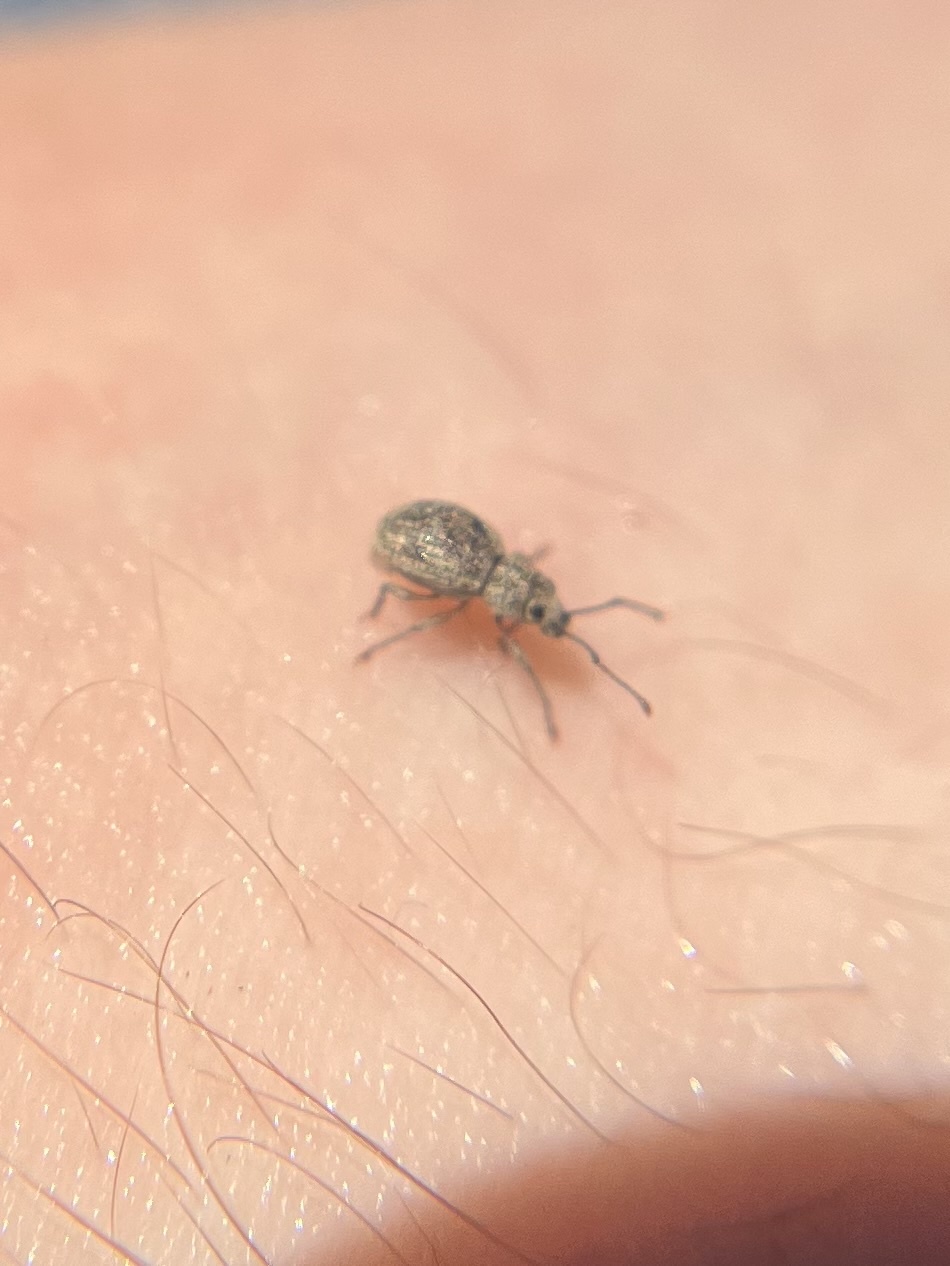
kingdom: Animalia
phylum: Arthropoda
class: Insecta
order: Coleoptera
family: Curculionidae
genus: Calomycterus
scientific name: Calomycterus setarius
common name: Weevil
